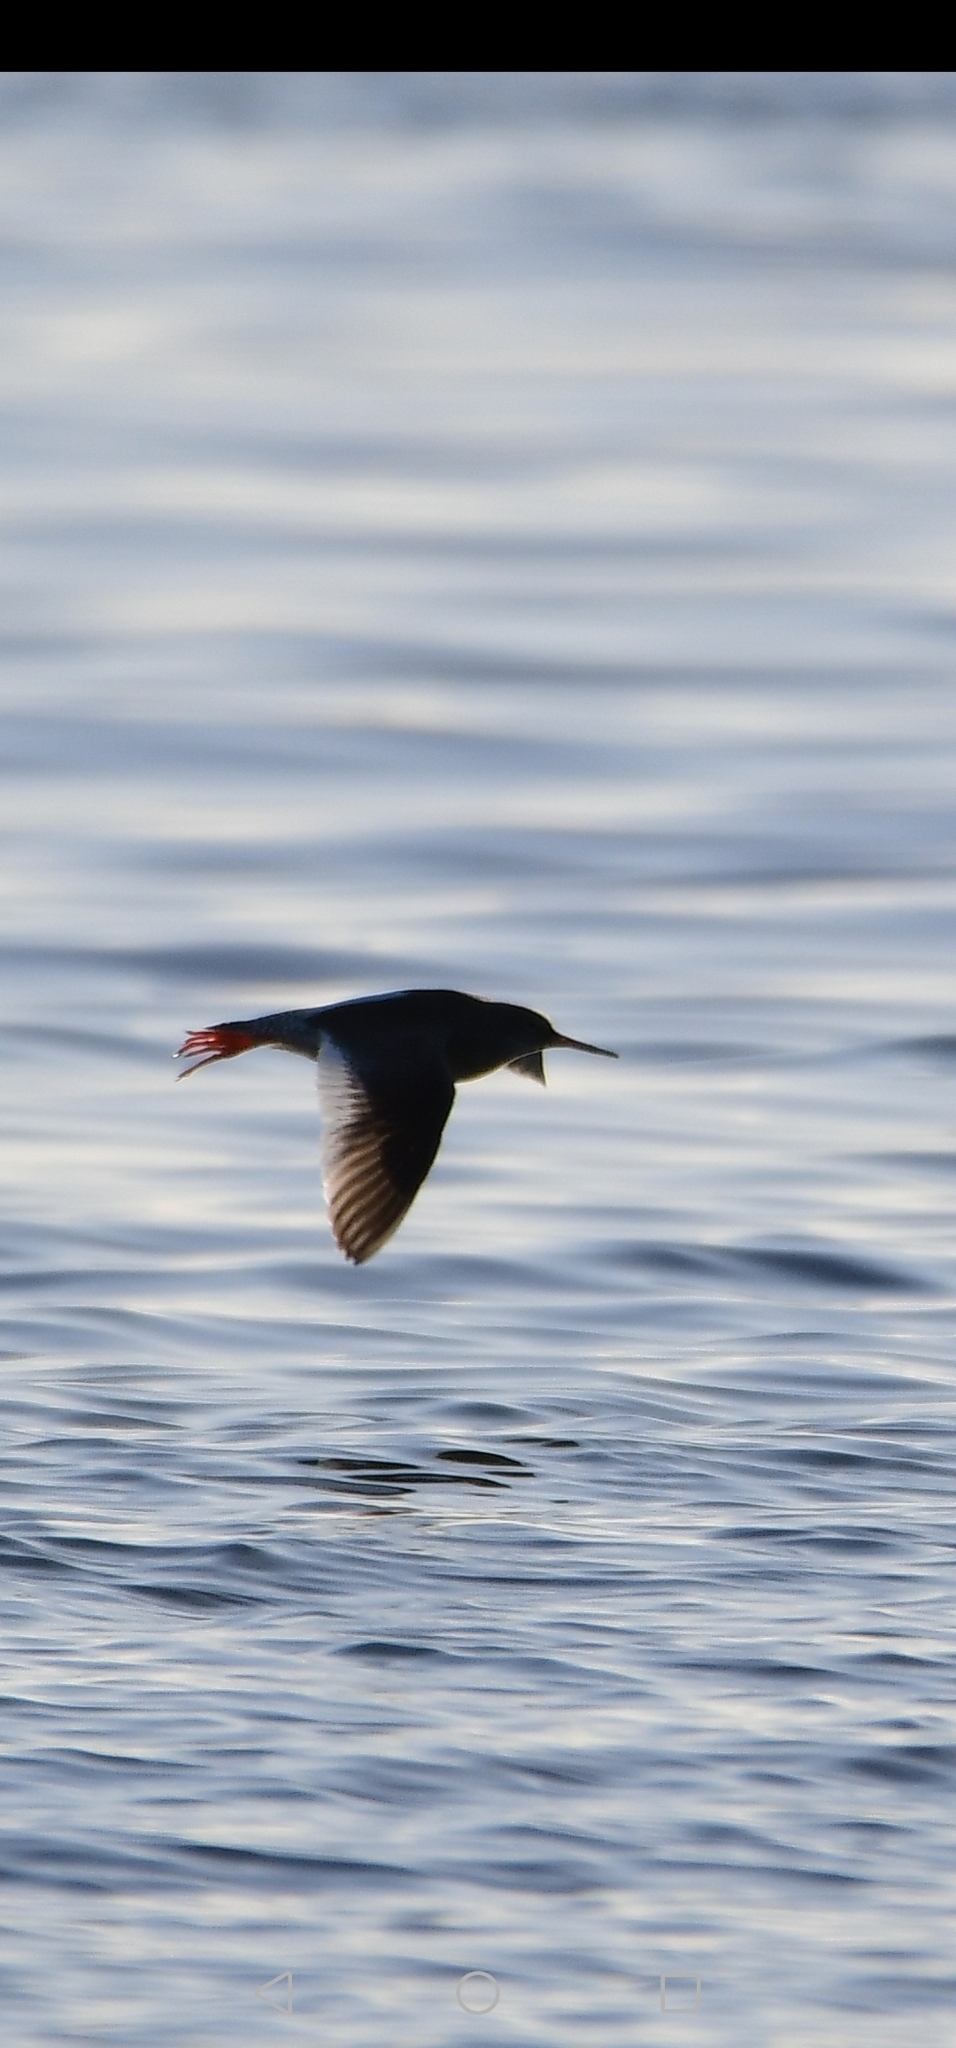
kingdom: Animalia
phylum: Chordata
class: Aves
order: Charadriiformes
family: Scolopacidae
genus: Tringa
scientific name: Tringa totanus
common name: Common redshank
